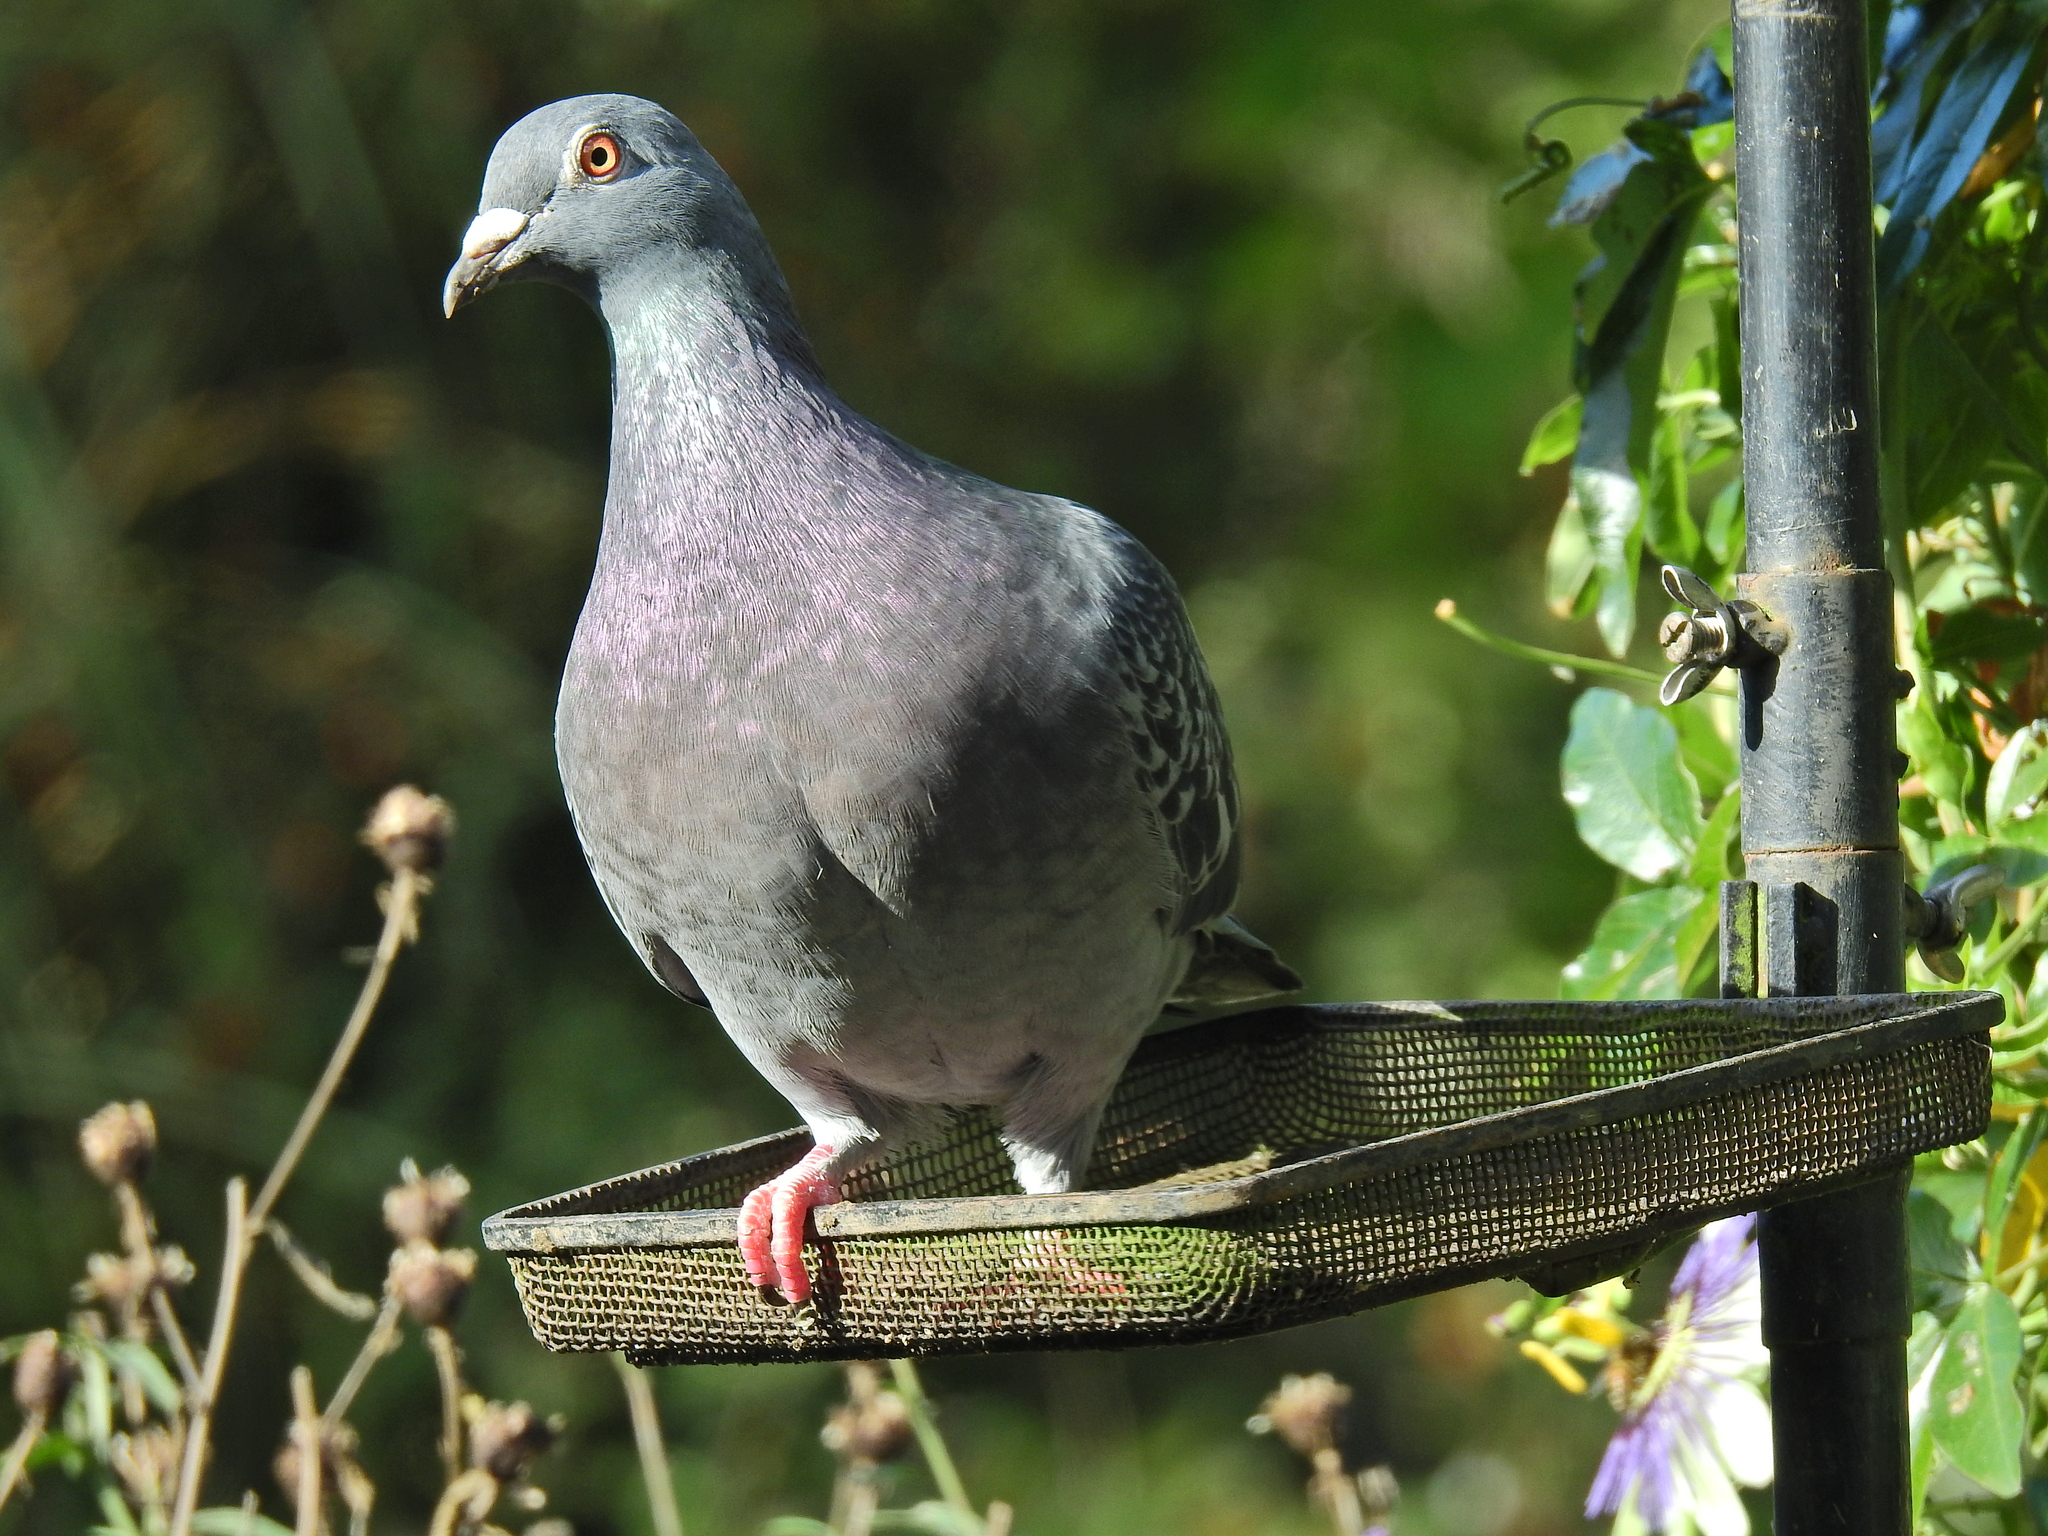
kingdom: Animalia
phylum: Chordata
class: Aves
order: Columbiformes
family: Columbidae
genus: Columba
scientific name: Columba livia
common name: Rock pigeon
